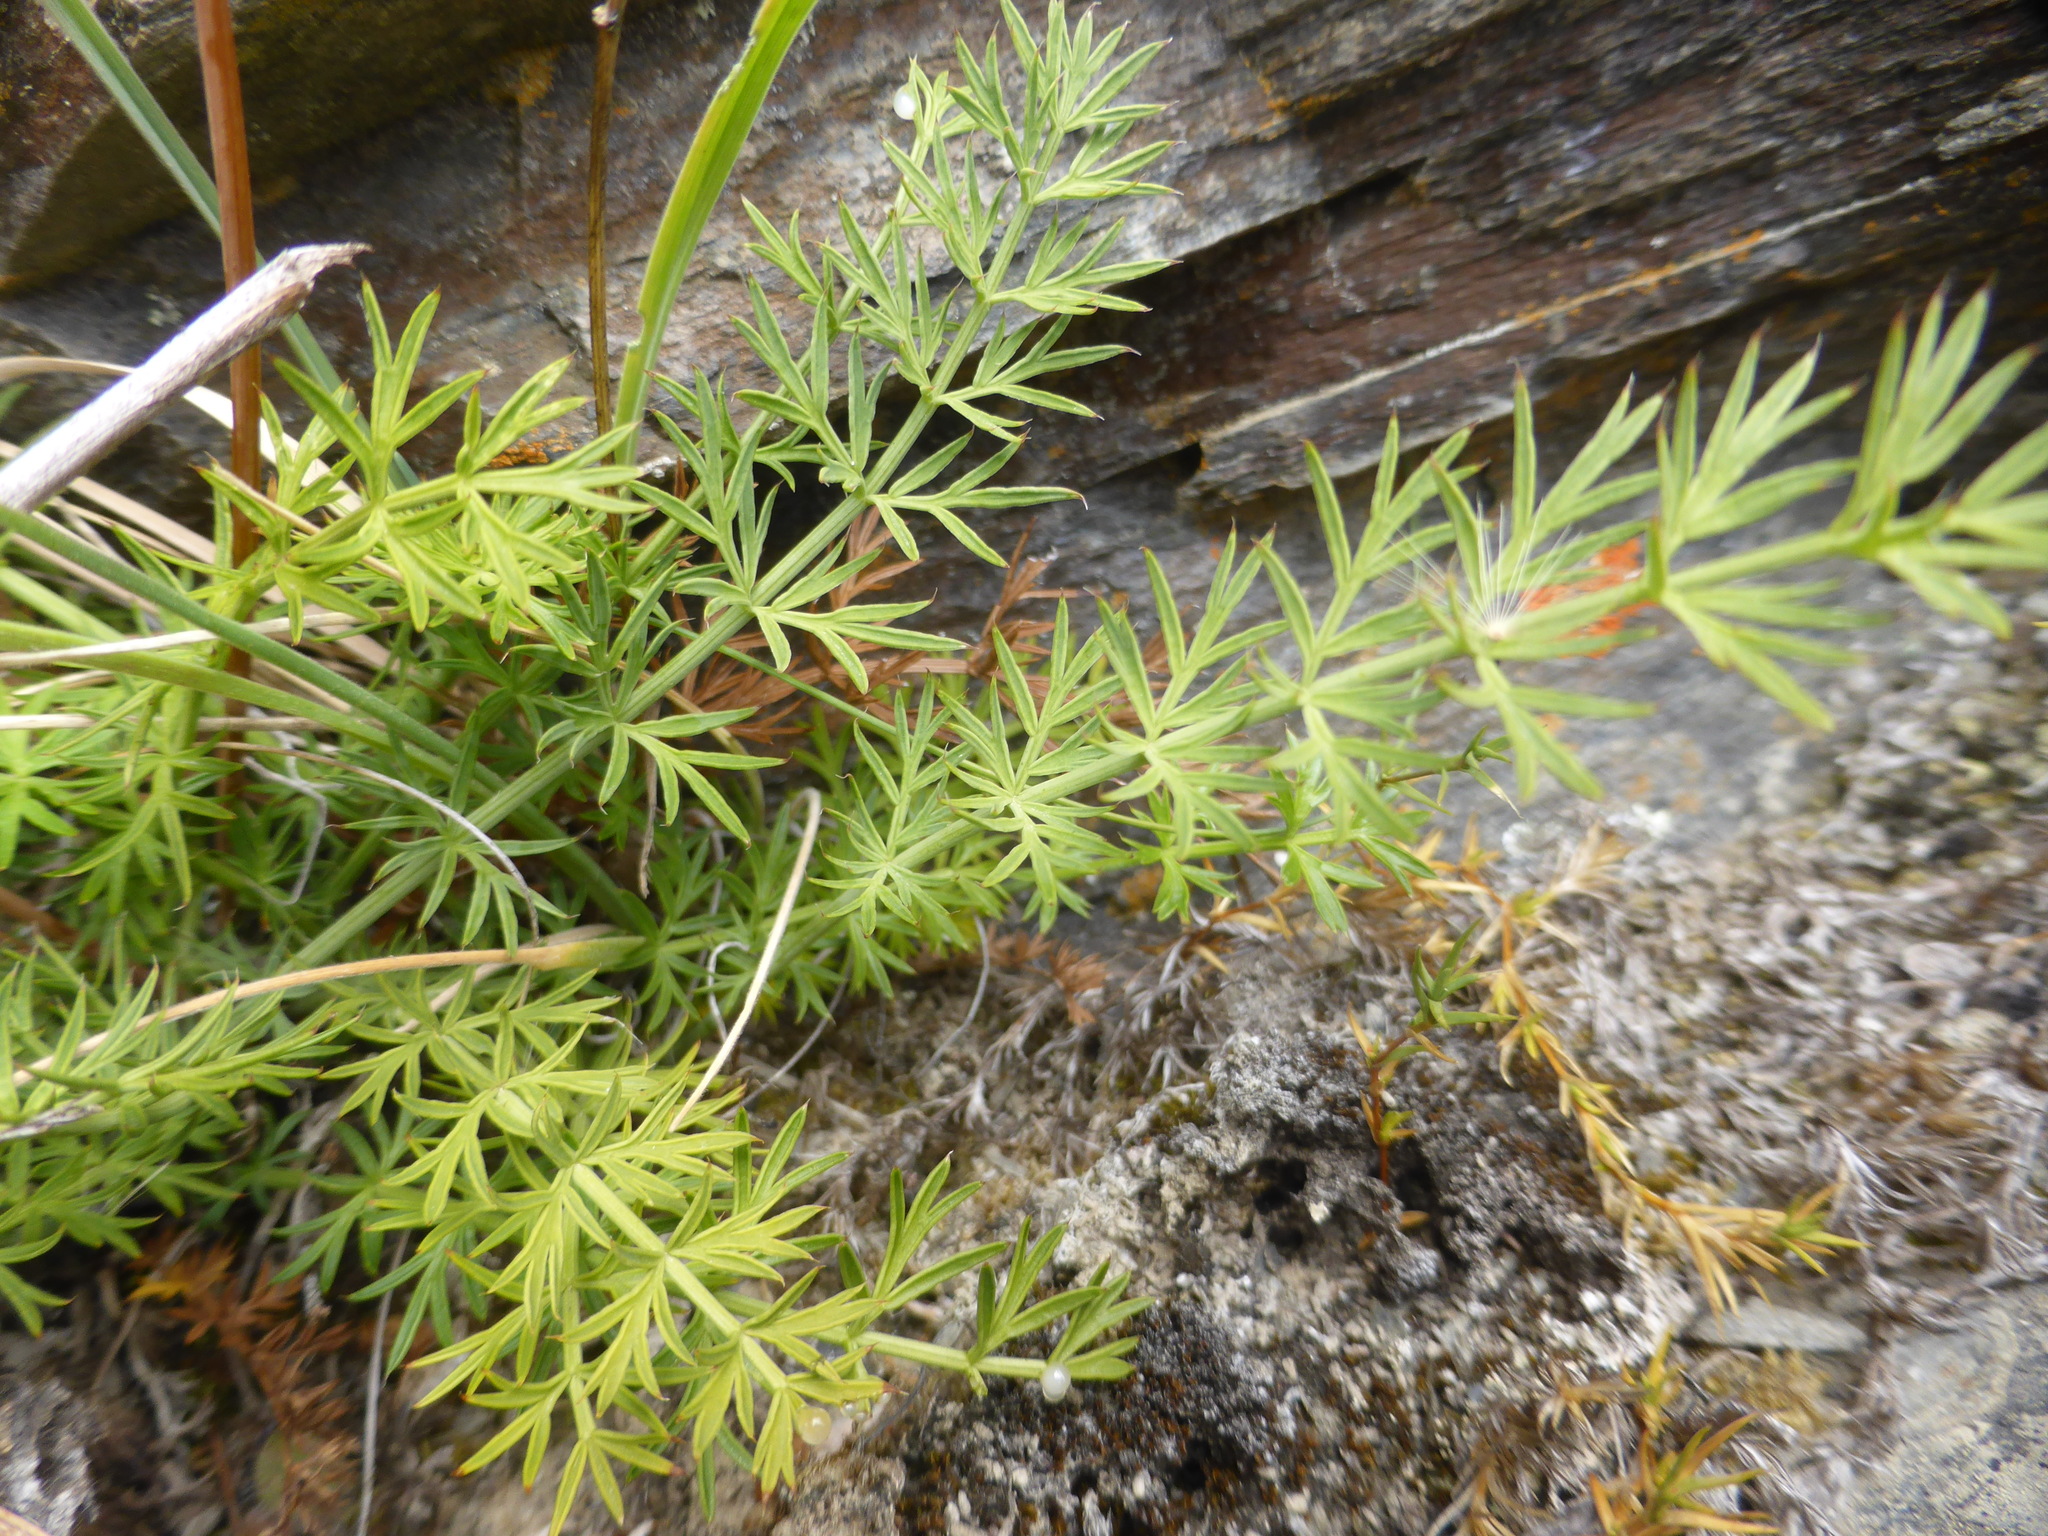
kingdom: Plantae
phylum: Tracheophyta
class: Magnoliopsida
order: Apiales
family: Apiaceae
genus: Anisotome
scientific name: Anisotome brevistylis
